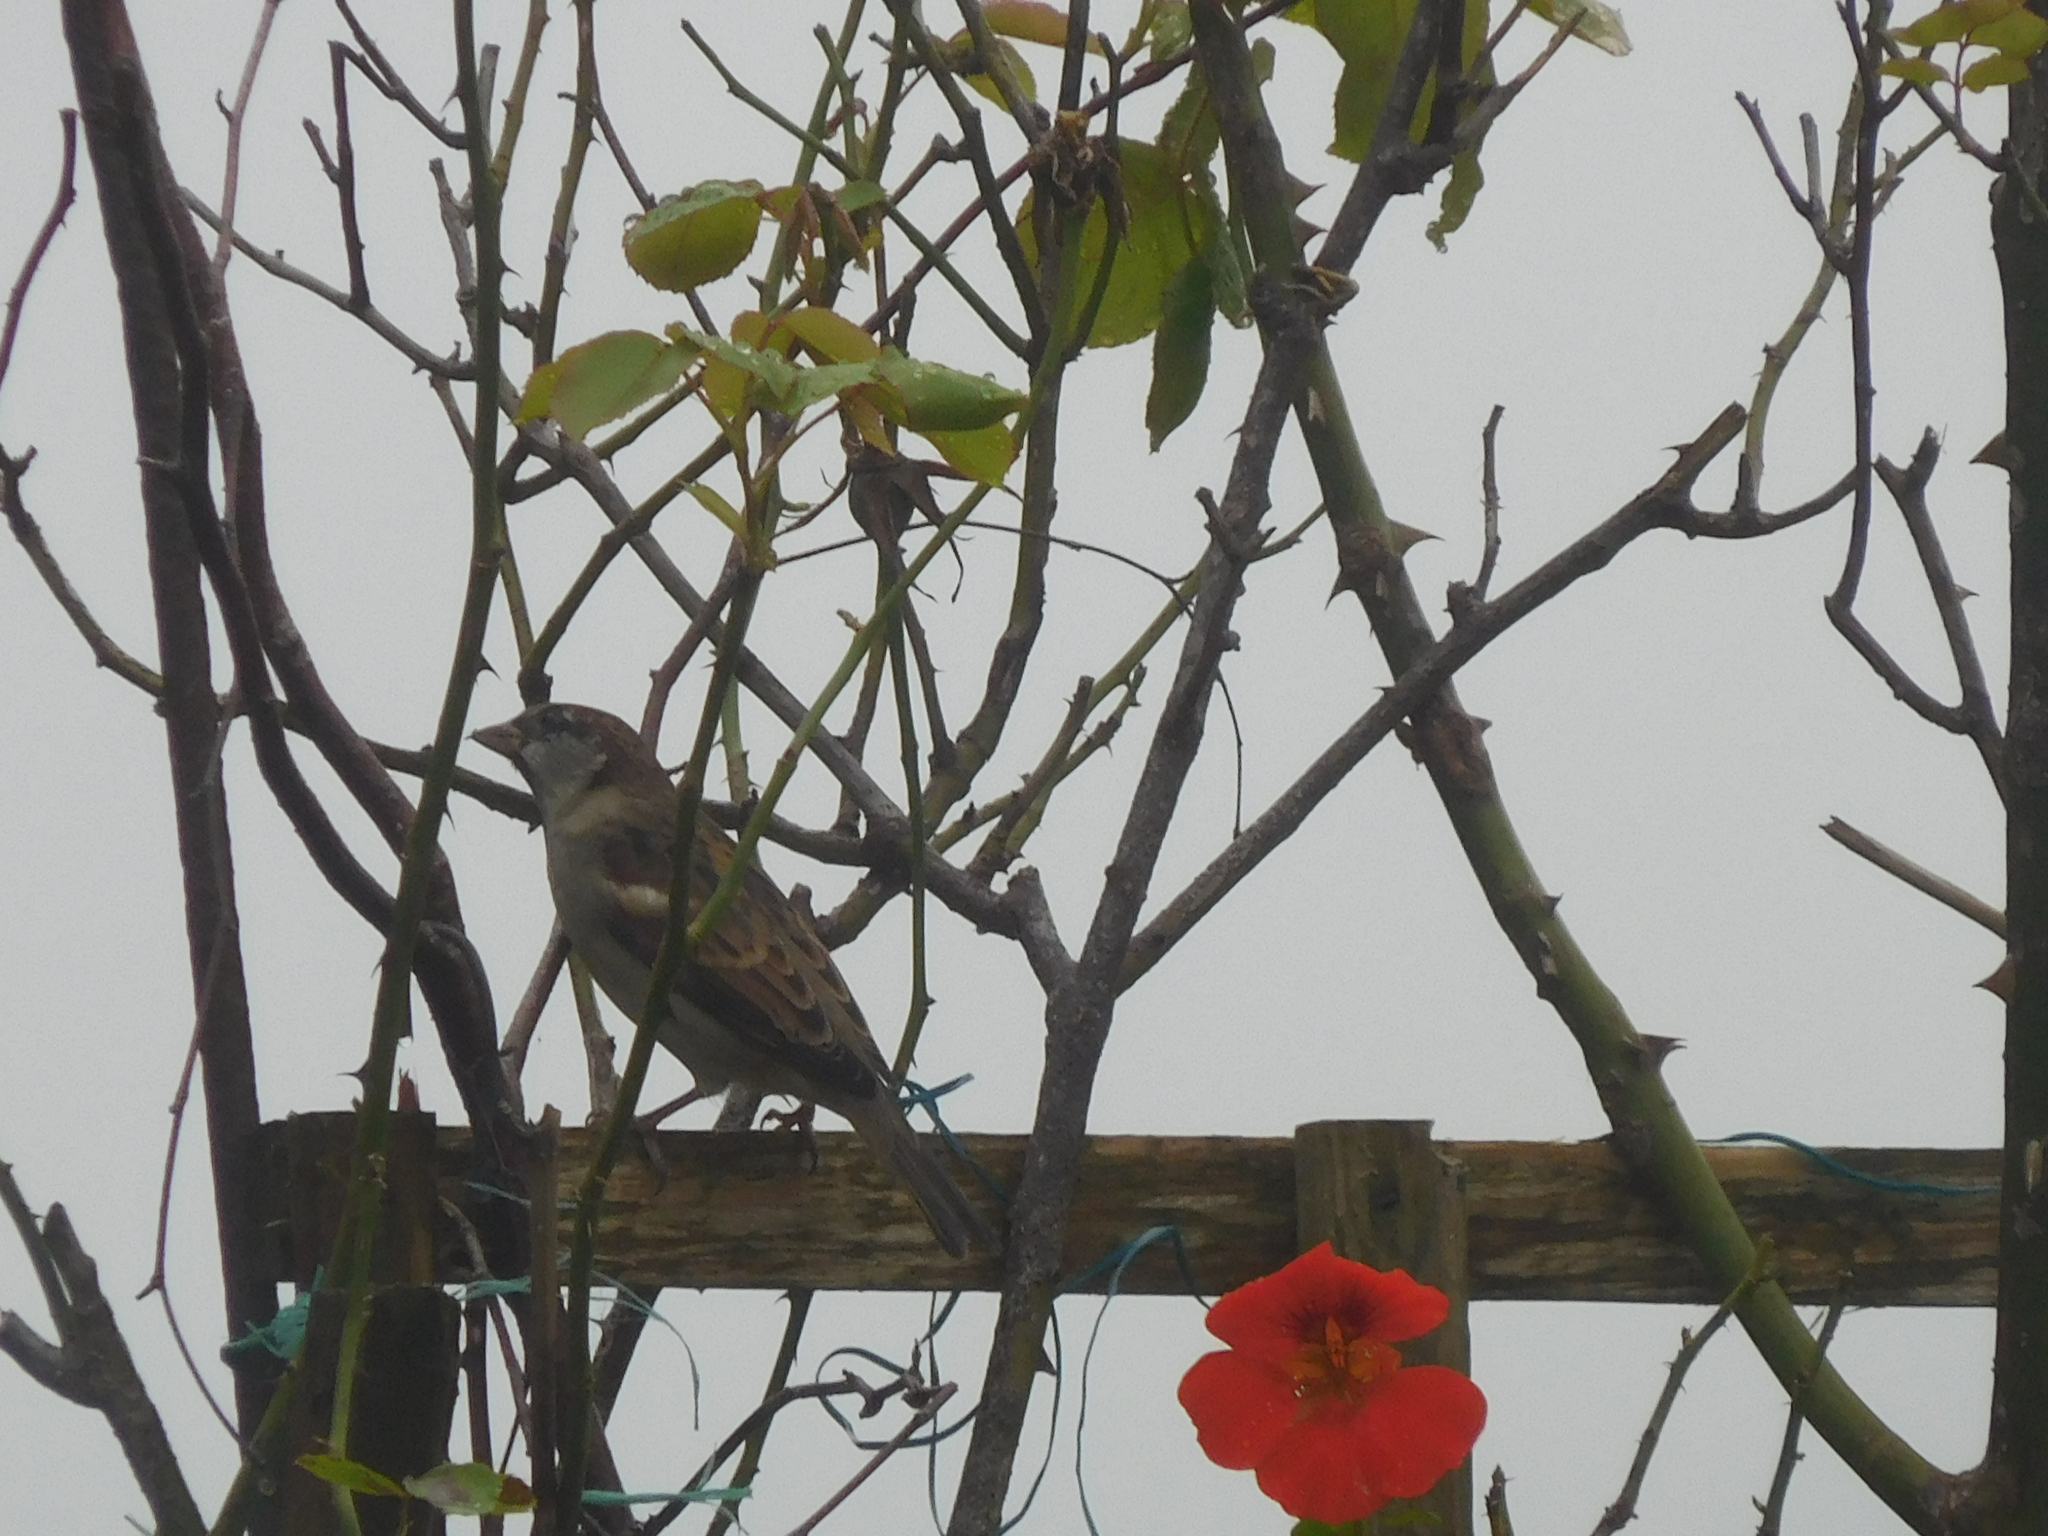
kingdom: Animalia
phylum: Chordata
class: Aves
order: Passeriformes
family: Passeridae
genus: Passer
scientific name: Passer domesticus
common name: House sparrow
